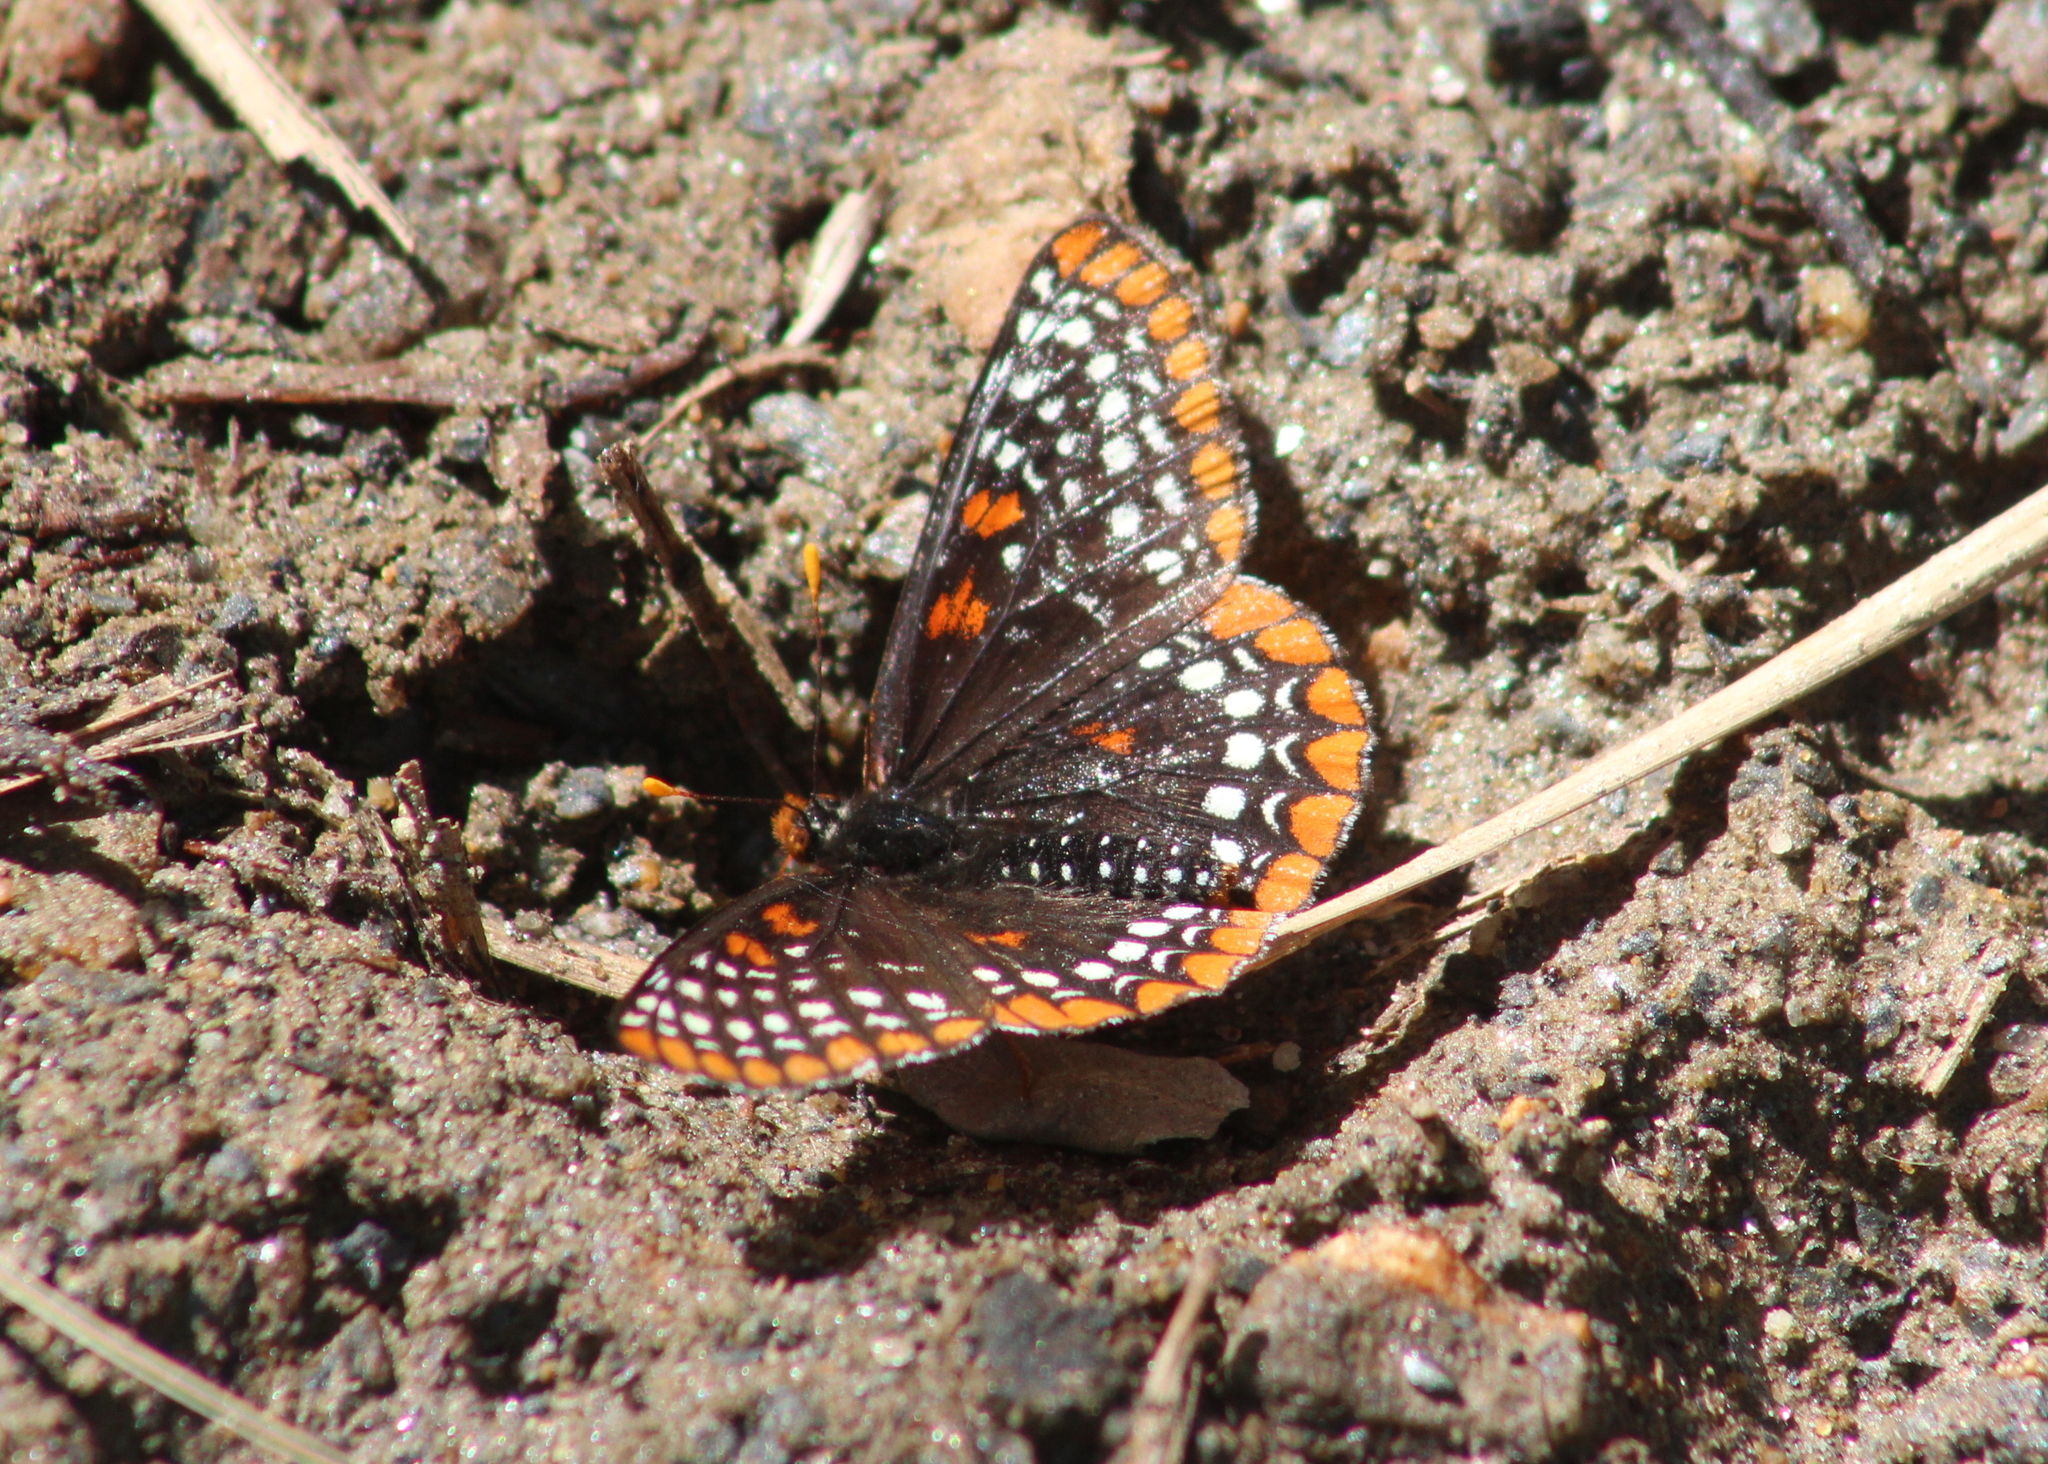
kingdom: Animalia
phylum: Arthropoda
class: Insecta
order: Lepidoptera
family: Nymphalidae
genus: Euphydryas
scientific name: Euphydryas phaeton
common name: Baltimore checkerspot
